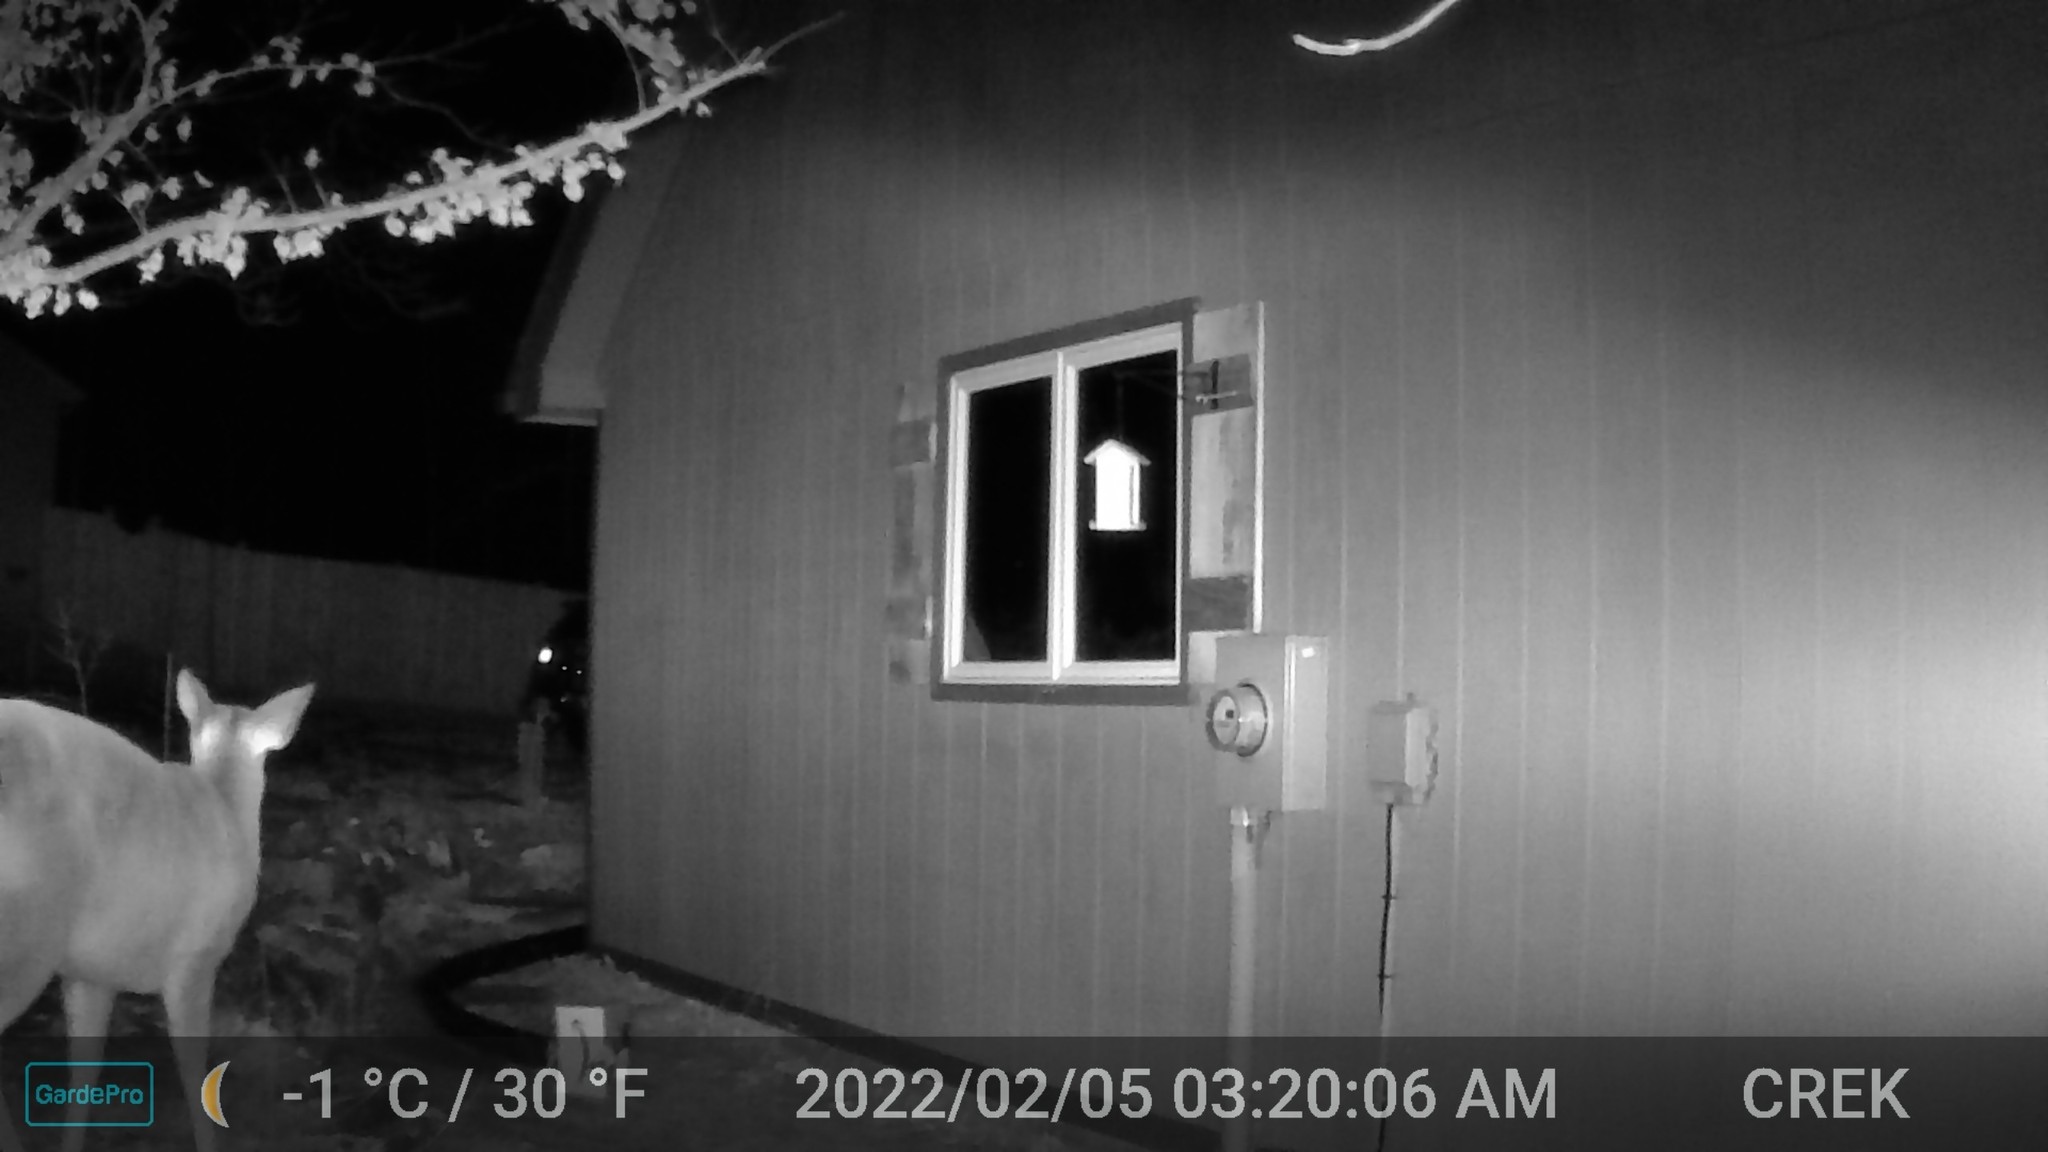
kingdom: Animalia
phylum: Chordata
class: Mammalia
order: Artiodactyla
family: Cervidae
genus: Odocoileus
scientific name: Odocoileus virginianus
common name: White-tailed deer
